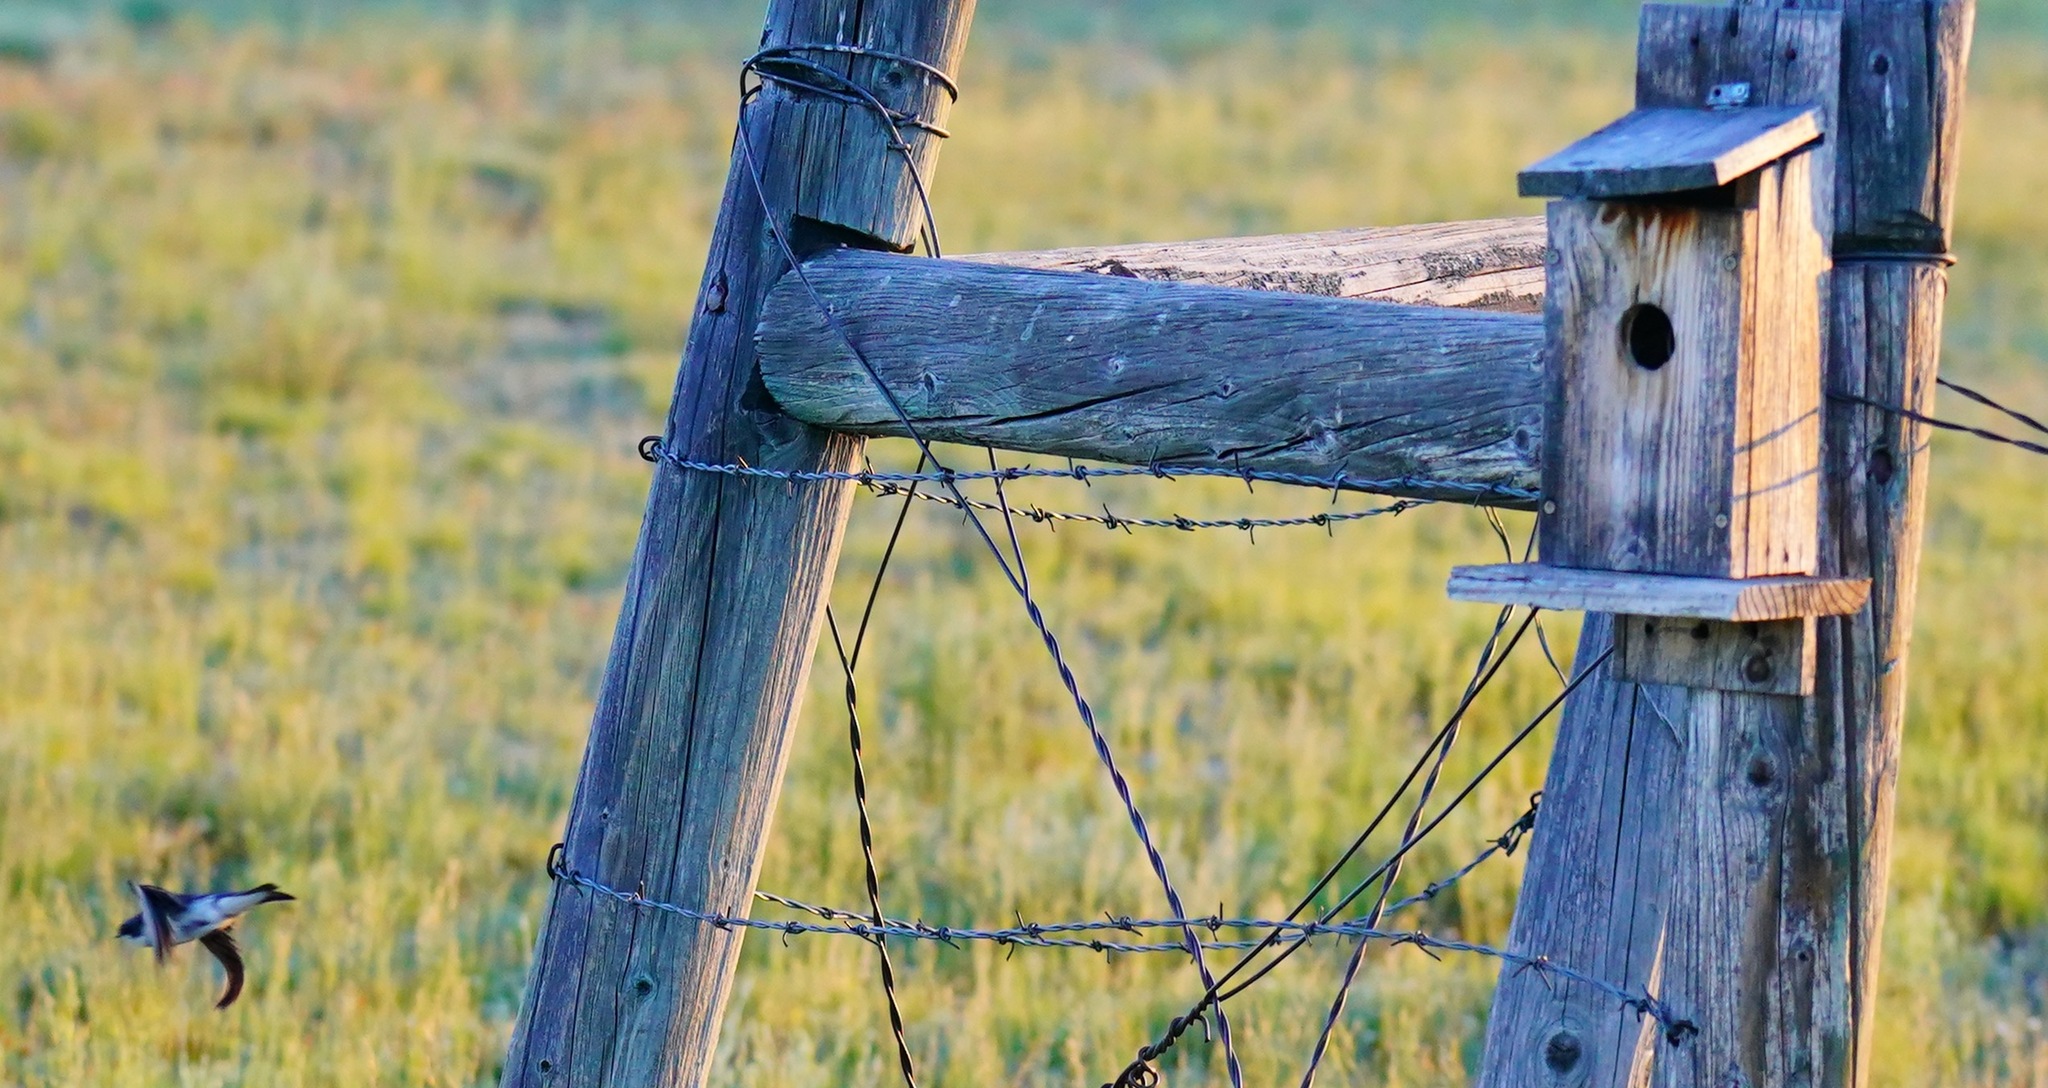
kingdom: Animalia
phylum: Chordata
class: Aves
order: Passeriformes
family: Hirundinidae
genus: Tachycineta
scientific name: Tachycineta bicolor
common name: Tree swallow
